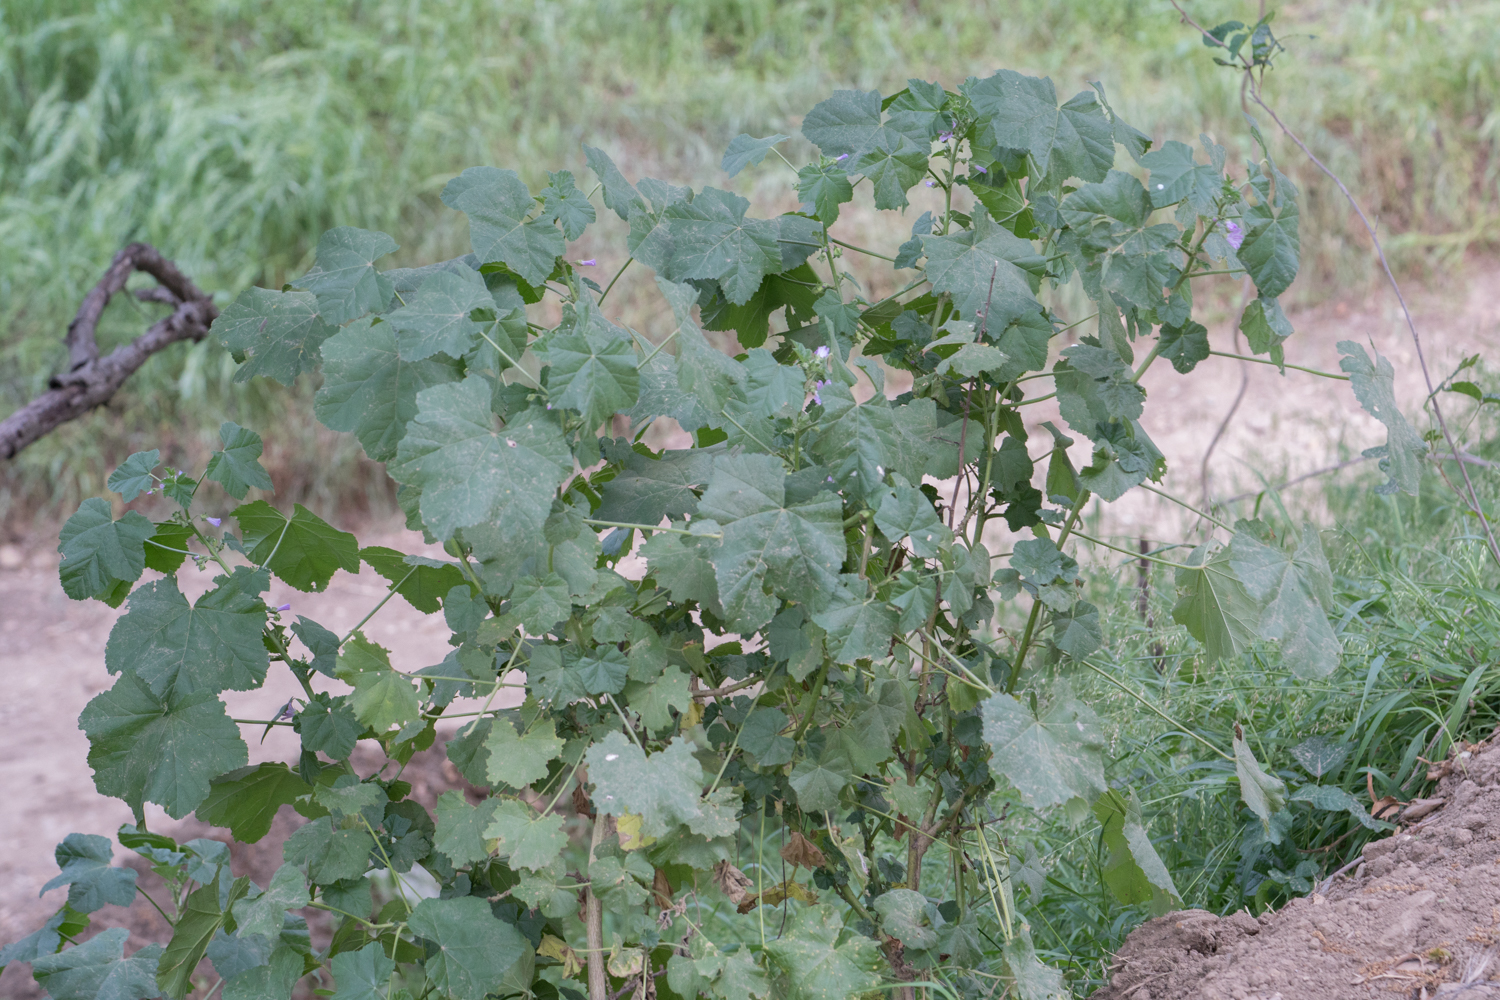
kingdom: Plantae
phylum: Tracheophyta
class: Magnoliopsida
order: Malvales
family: Malvaceae
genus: Malva
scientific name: Malva multiflora
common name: Cheeseweed
